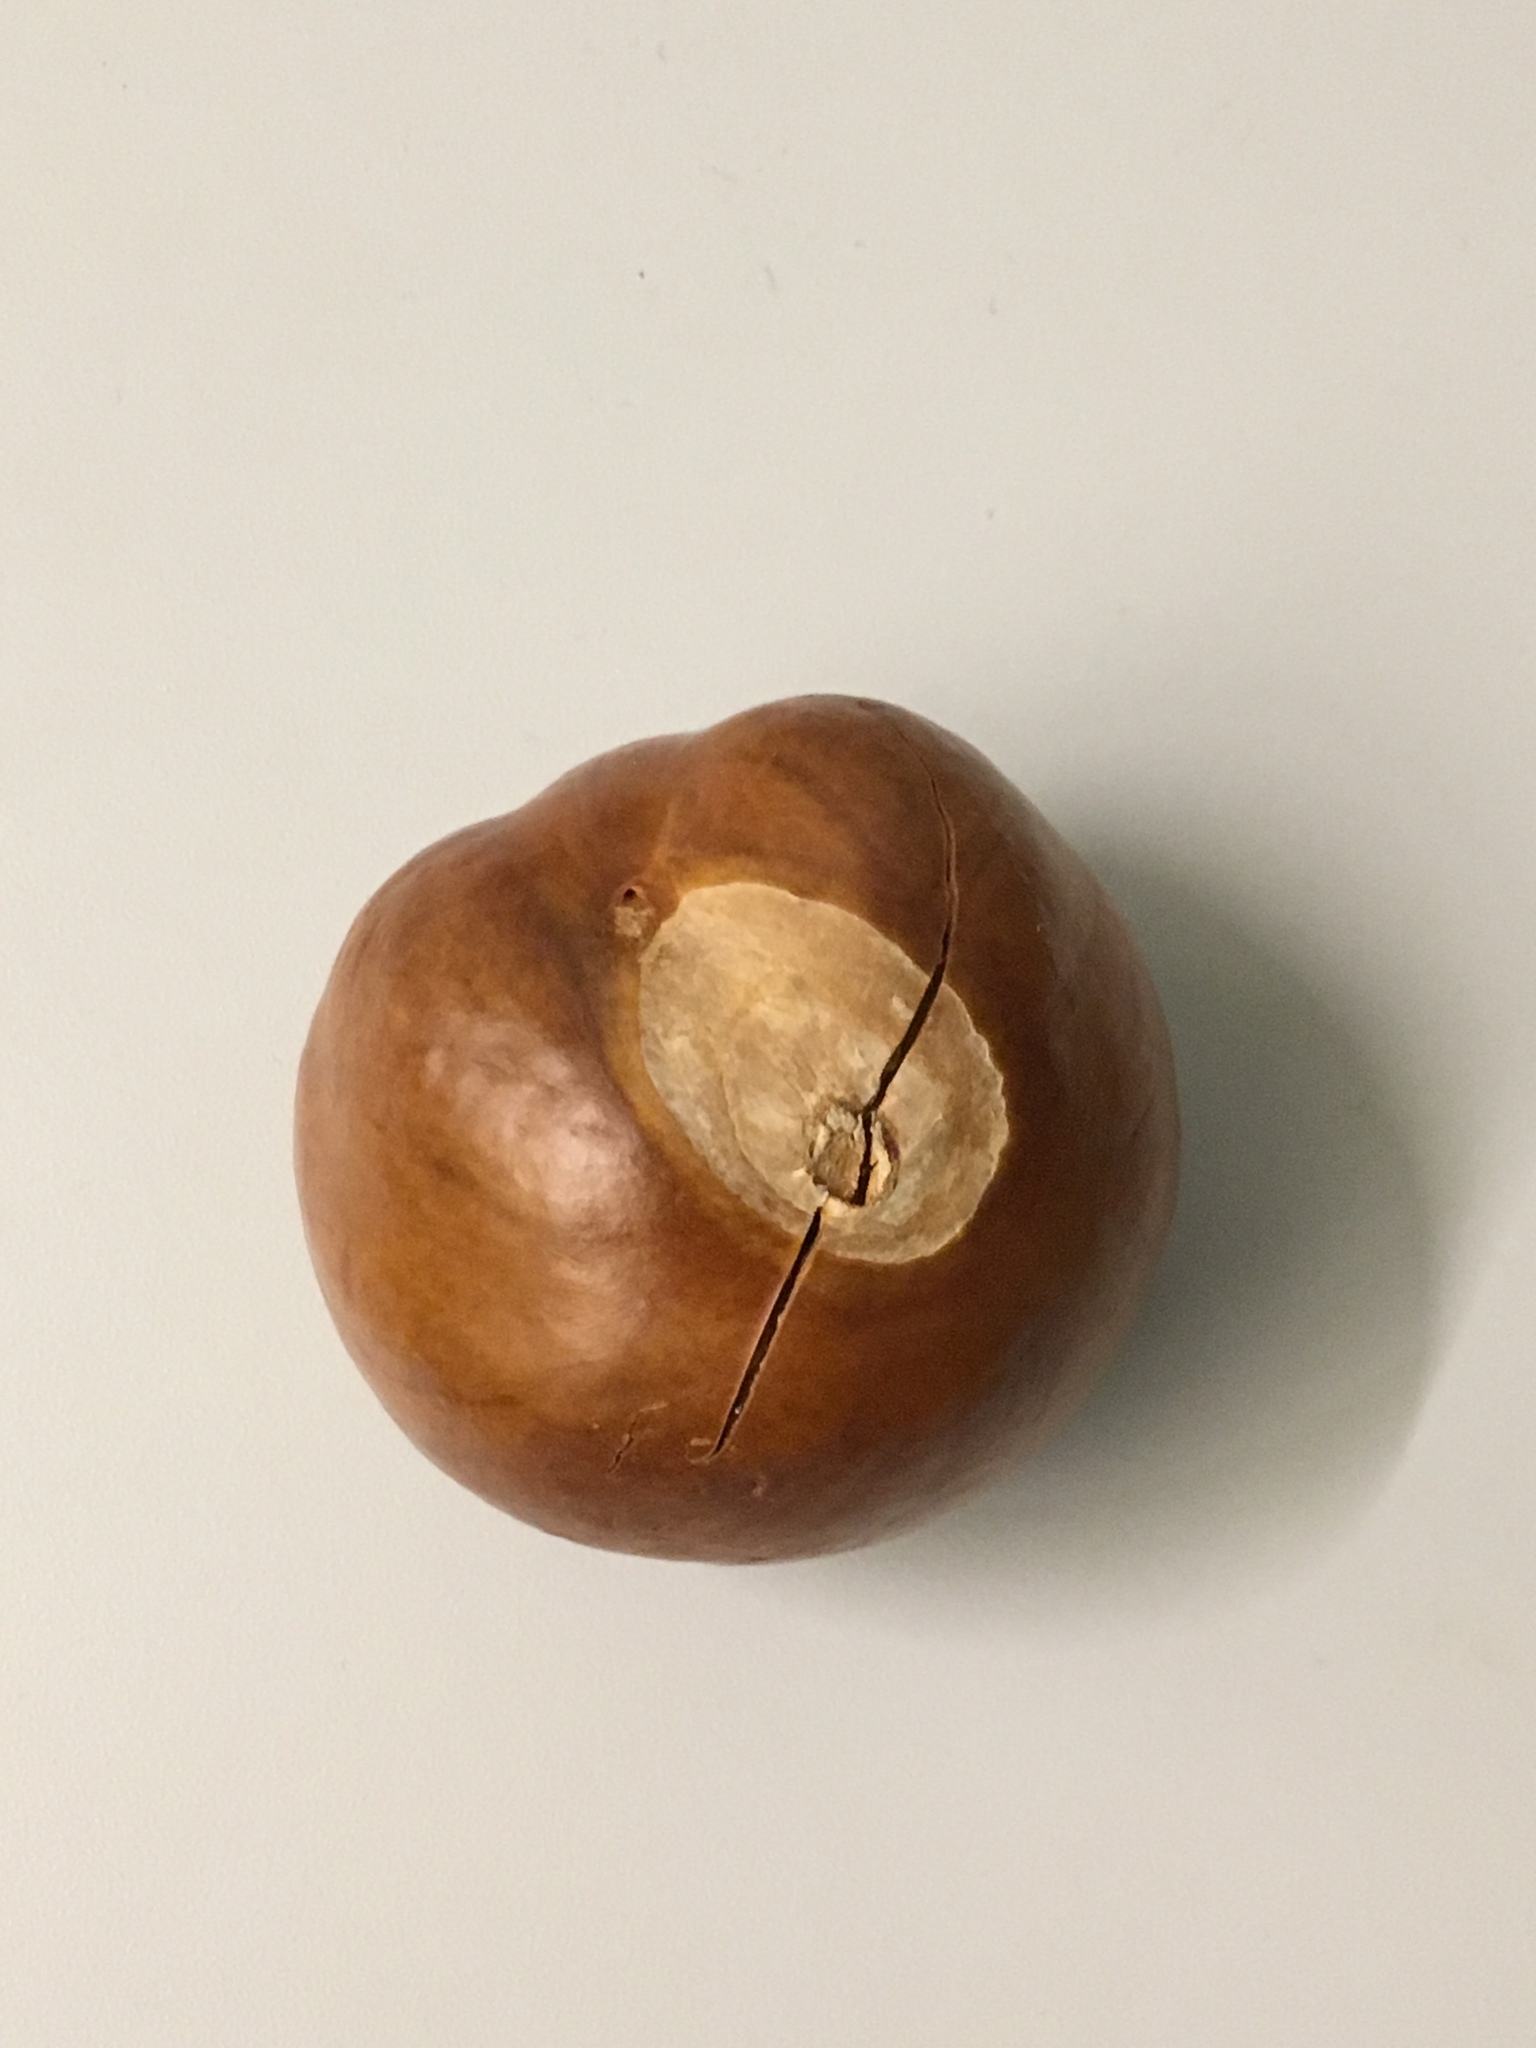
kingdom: Plantae
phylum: Tracheophyta
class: Magnoliopsida
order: Sapindales
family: Sapindaceae
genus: Aesculus
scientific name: Aesculus californica
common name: California buckeye
